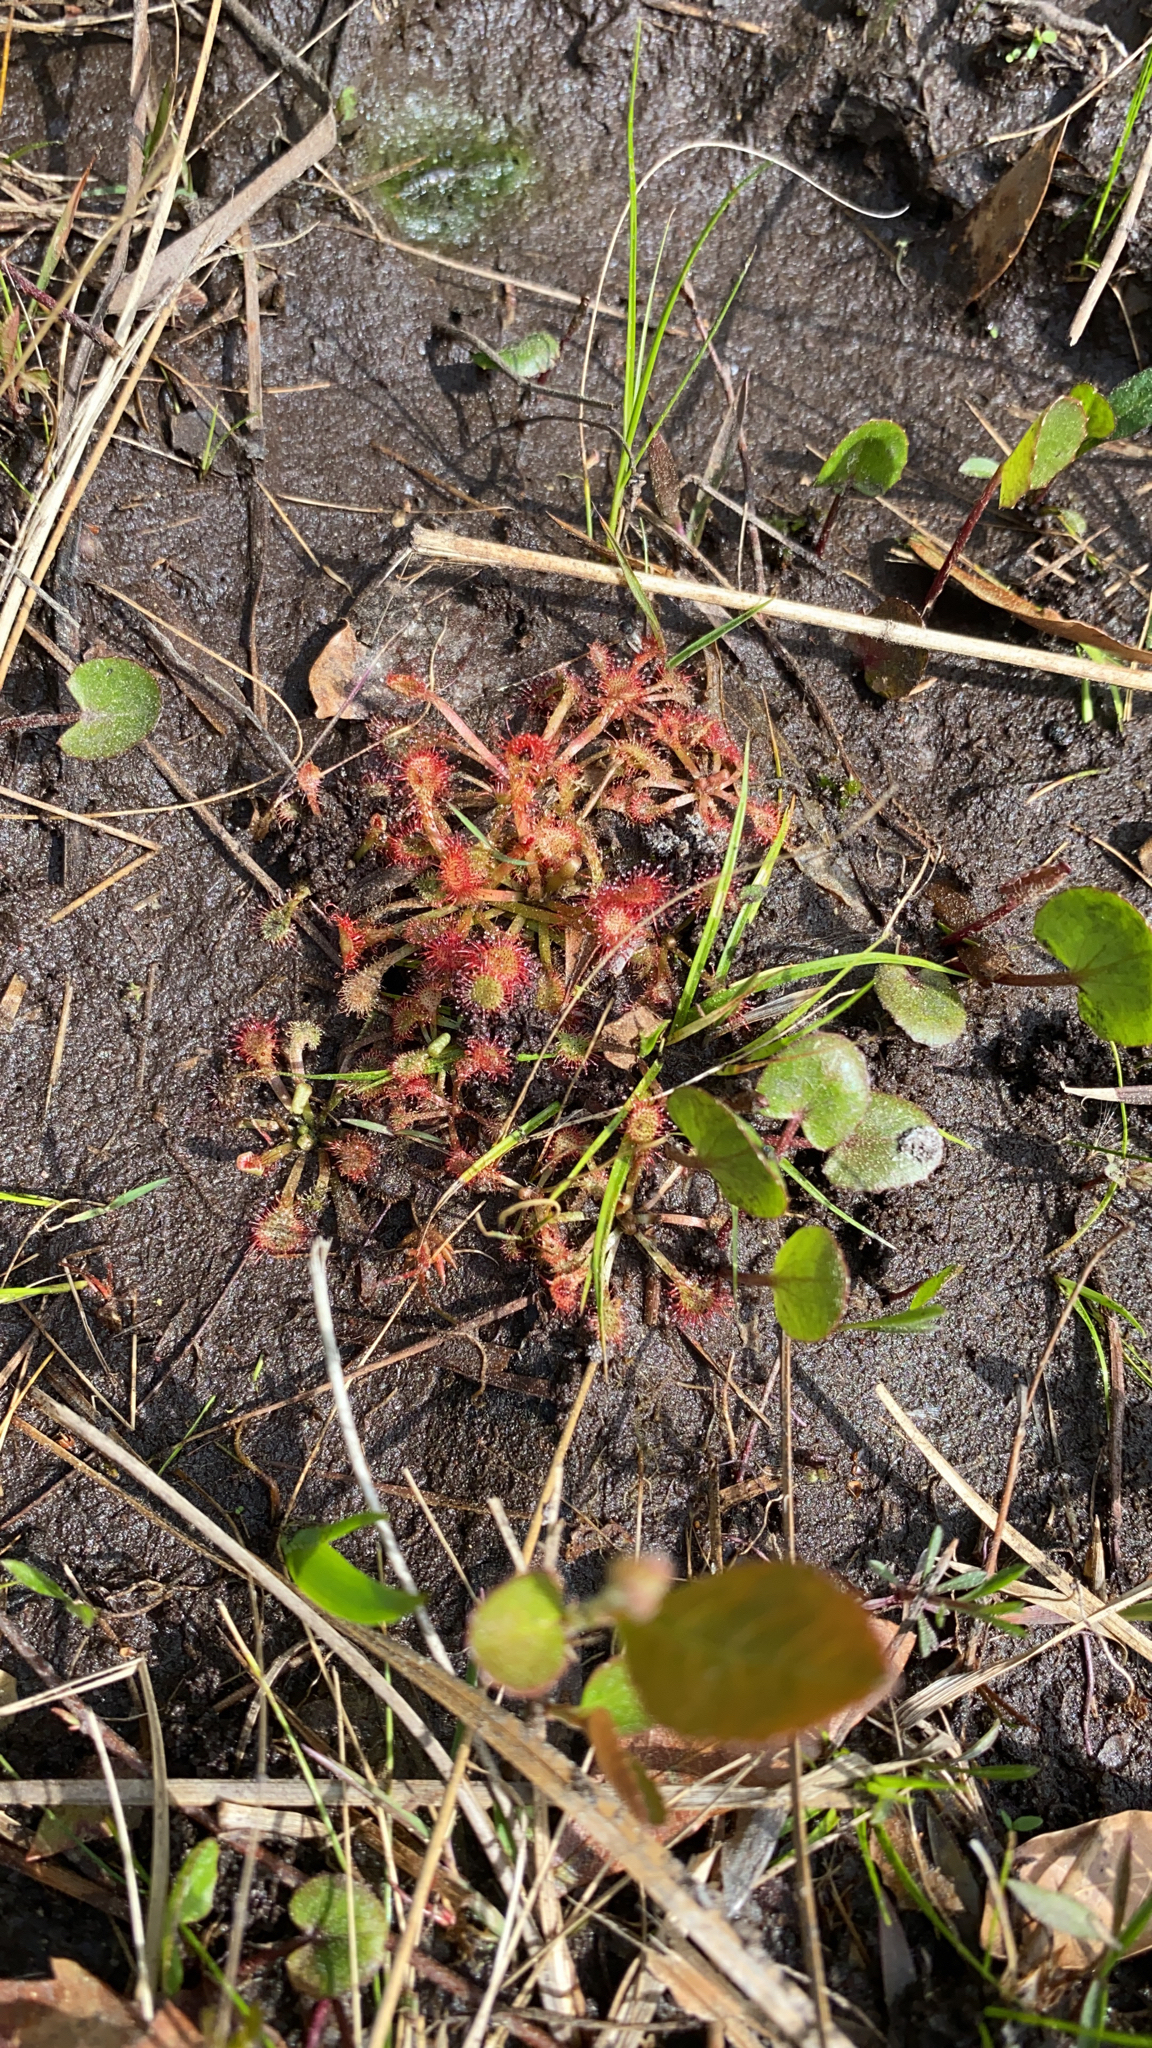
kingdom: Plantae
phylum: Tracheophyta
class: Magnoliopsida
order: Caryophyllales
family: Droseraceae
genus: Drosera
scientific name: Drosera capillaris
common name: Pink sundew
